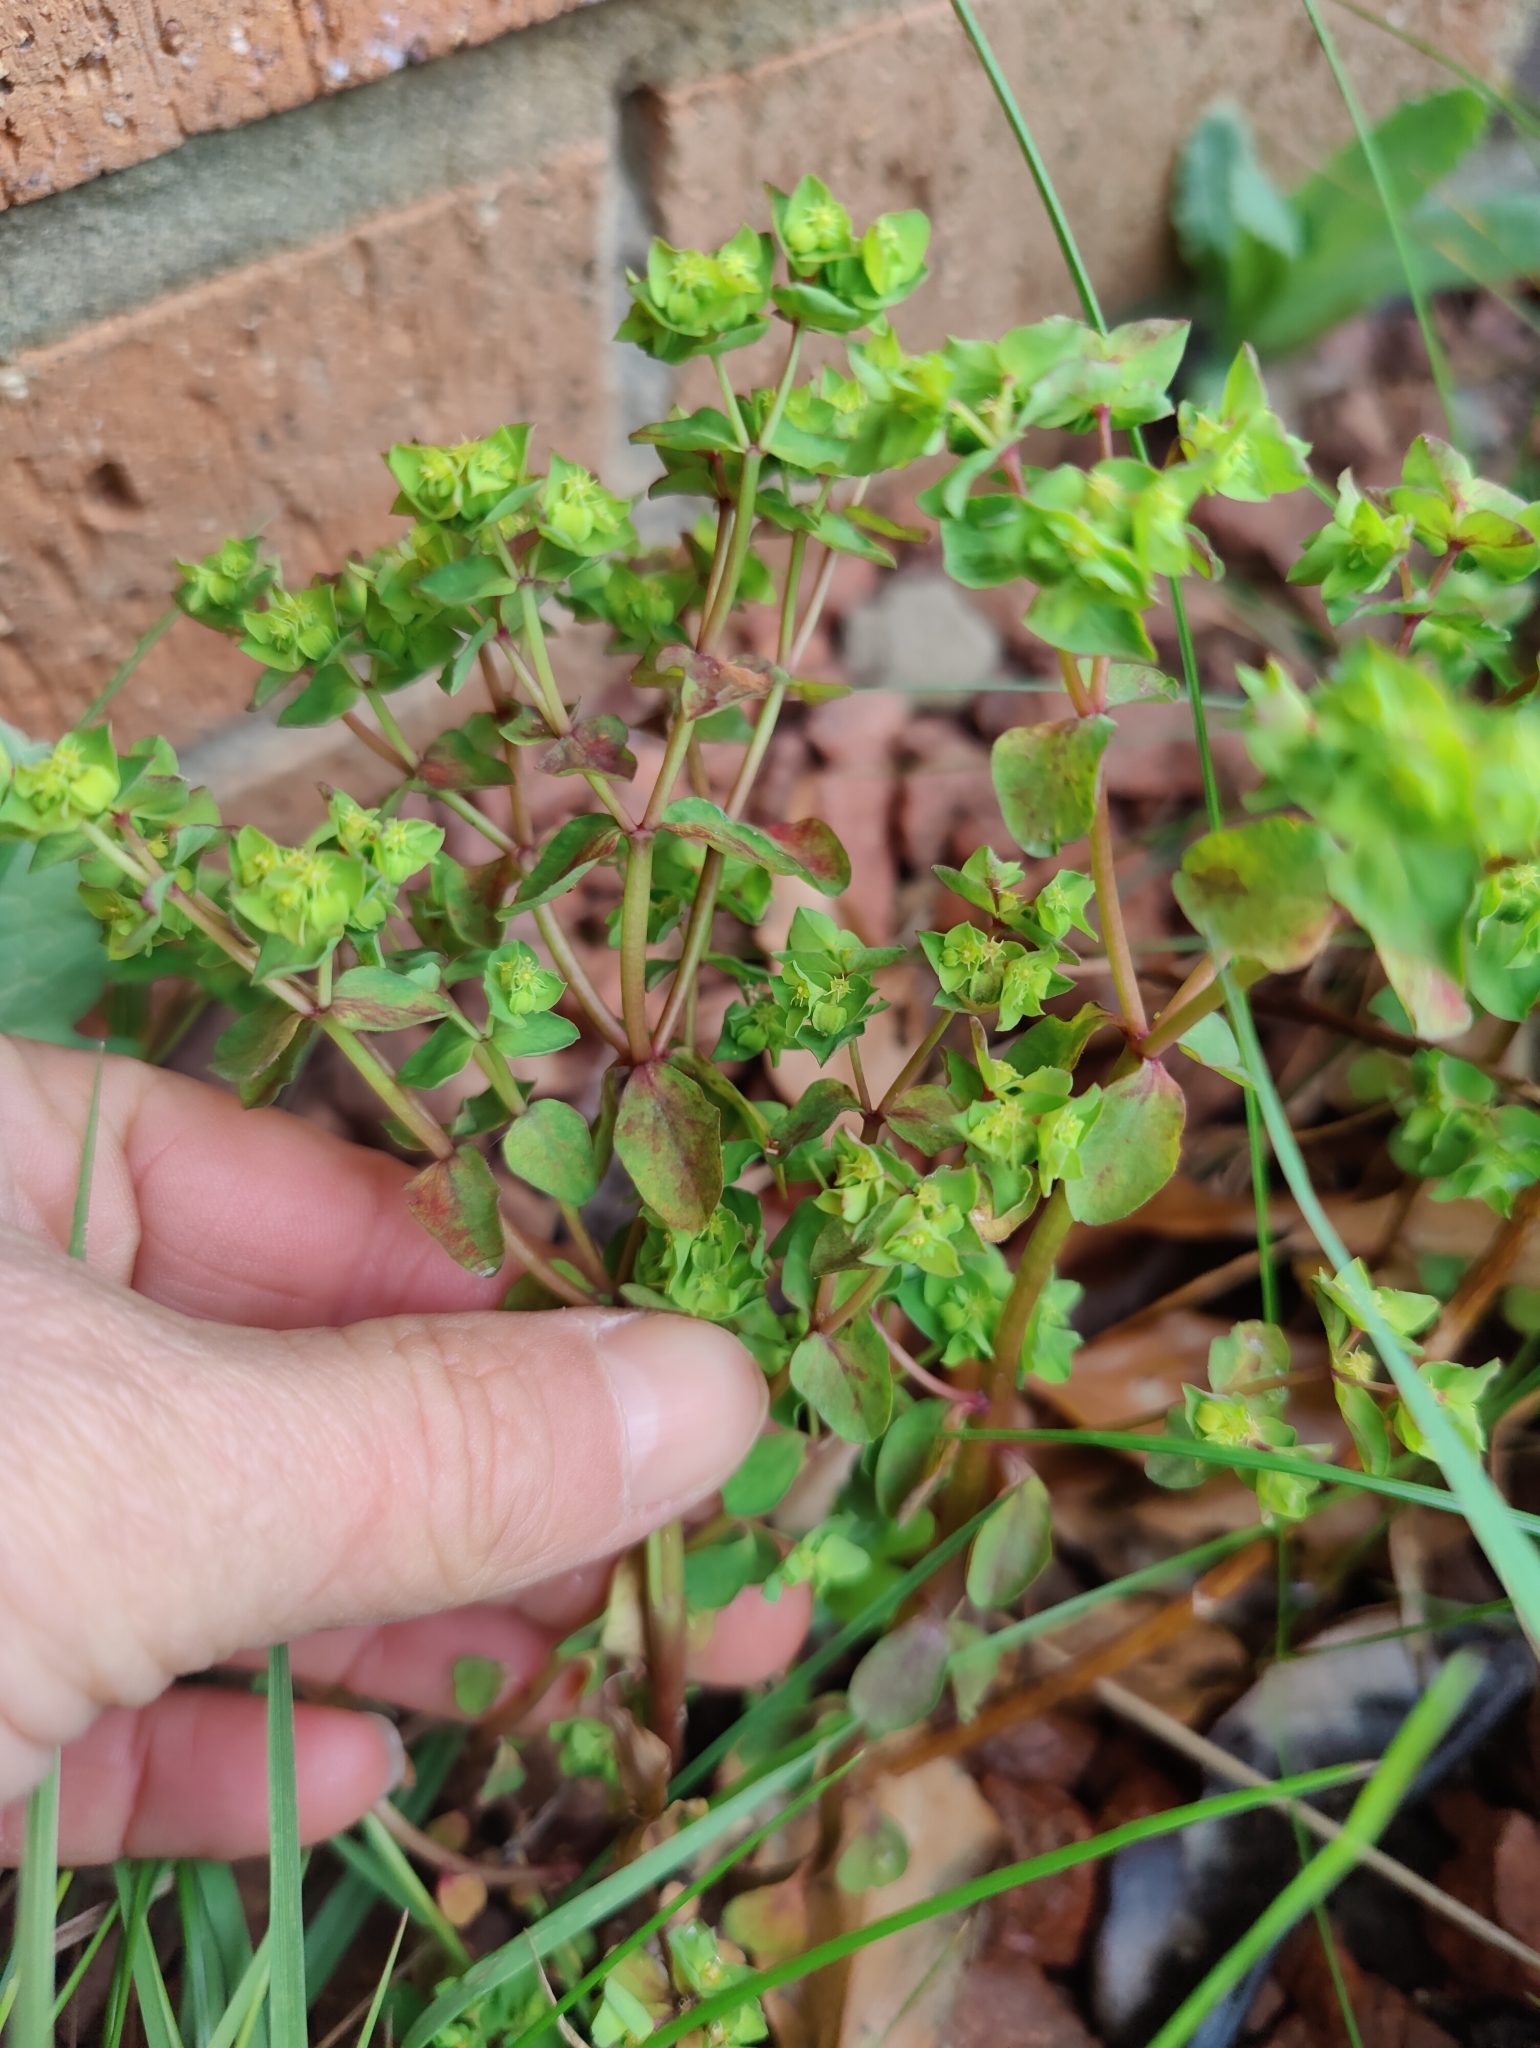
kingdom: Plantae
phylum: Tracheophyta
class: Magnoliopsida
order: Malpighiales
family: Euphorbiaceae
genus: Euphorbia
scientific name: Euphorbia peplus
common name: Petty spurge
